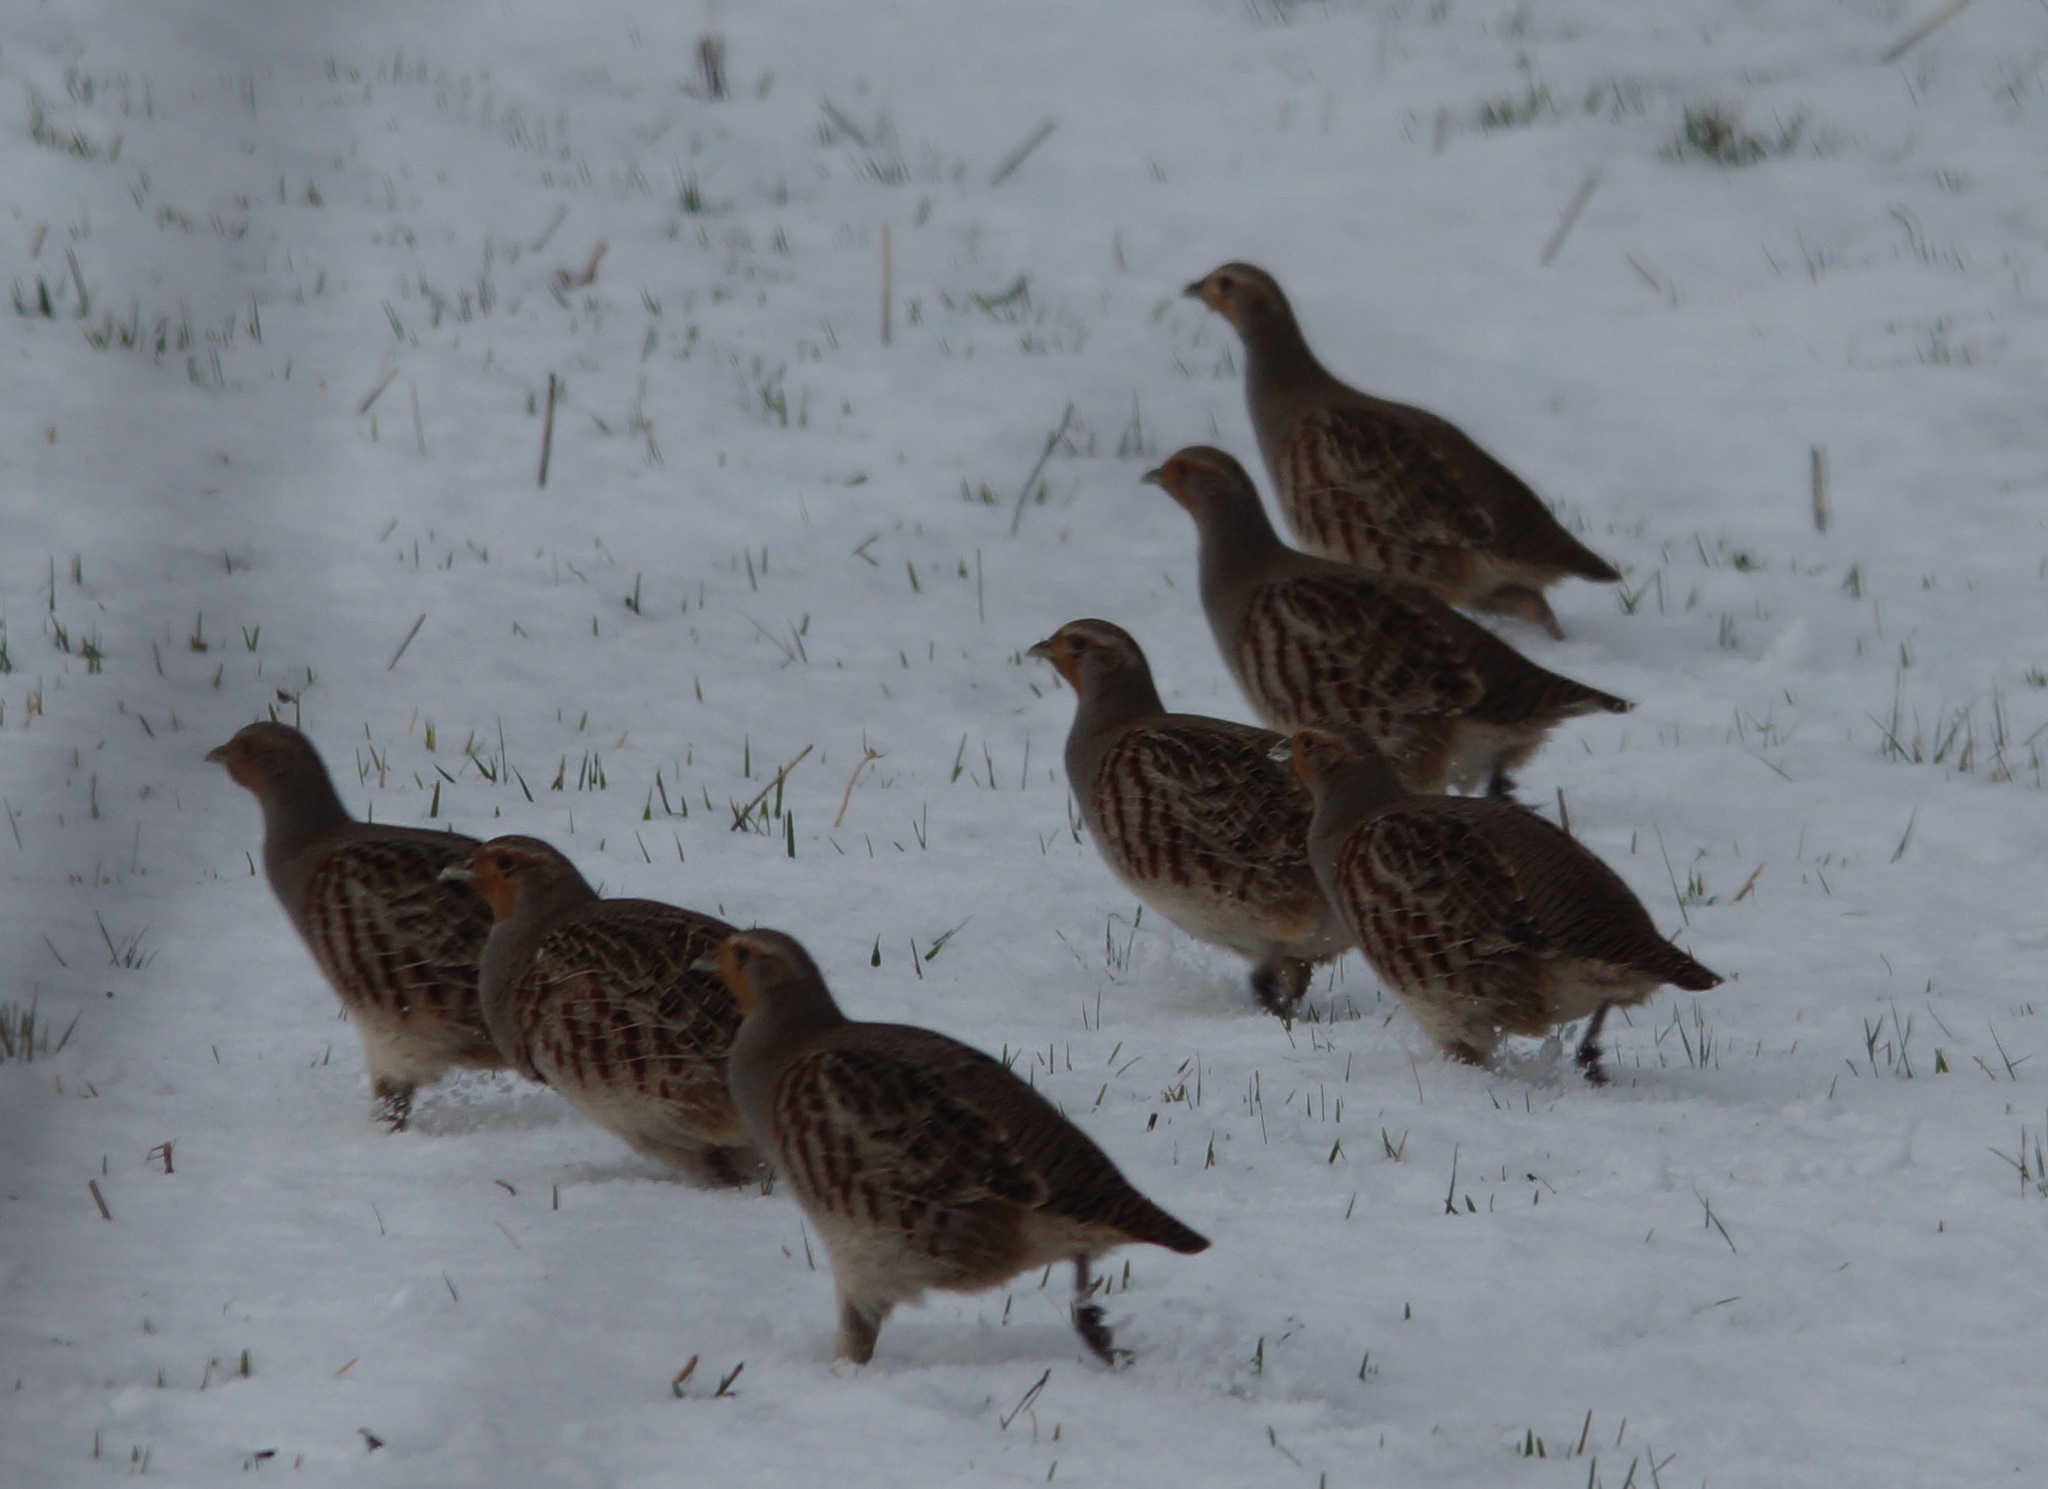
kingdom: Animalia
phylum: Chordata
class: Aves
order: Galliformes
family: Phasianidae
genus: Perdix
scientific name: Perdix perdix
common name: Grey partridge
